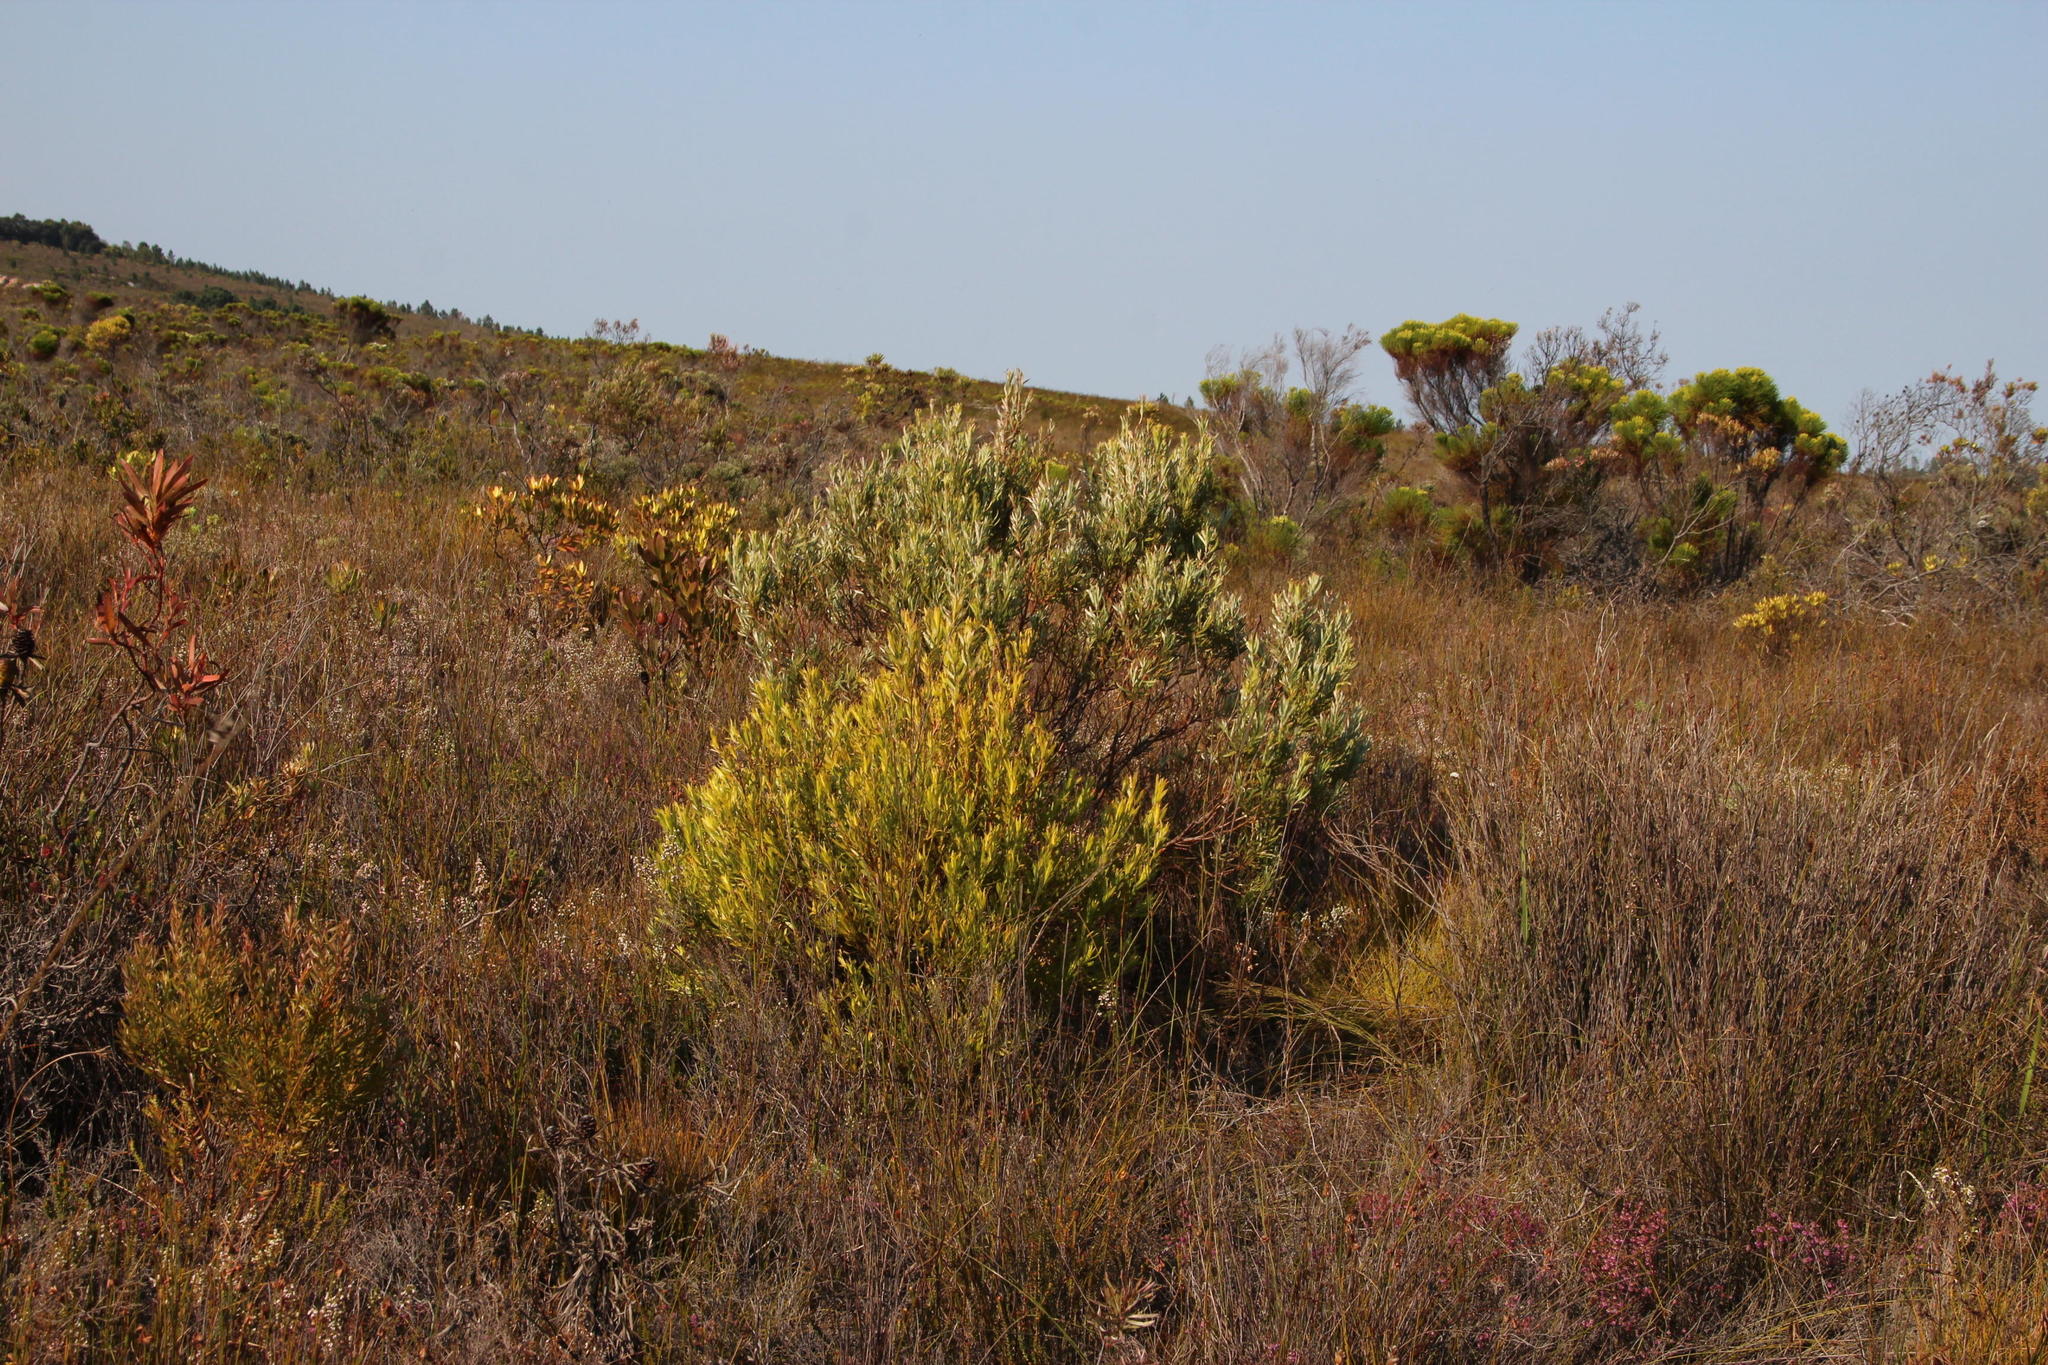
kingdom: Plantae
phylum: Tracheophyta
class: Magnoliopsida
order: Proteales
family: Proteaceae
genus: Leucadendron
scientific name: Leucadendron xanthoconus
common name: Sickle-leaf conebush
